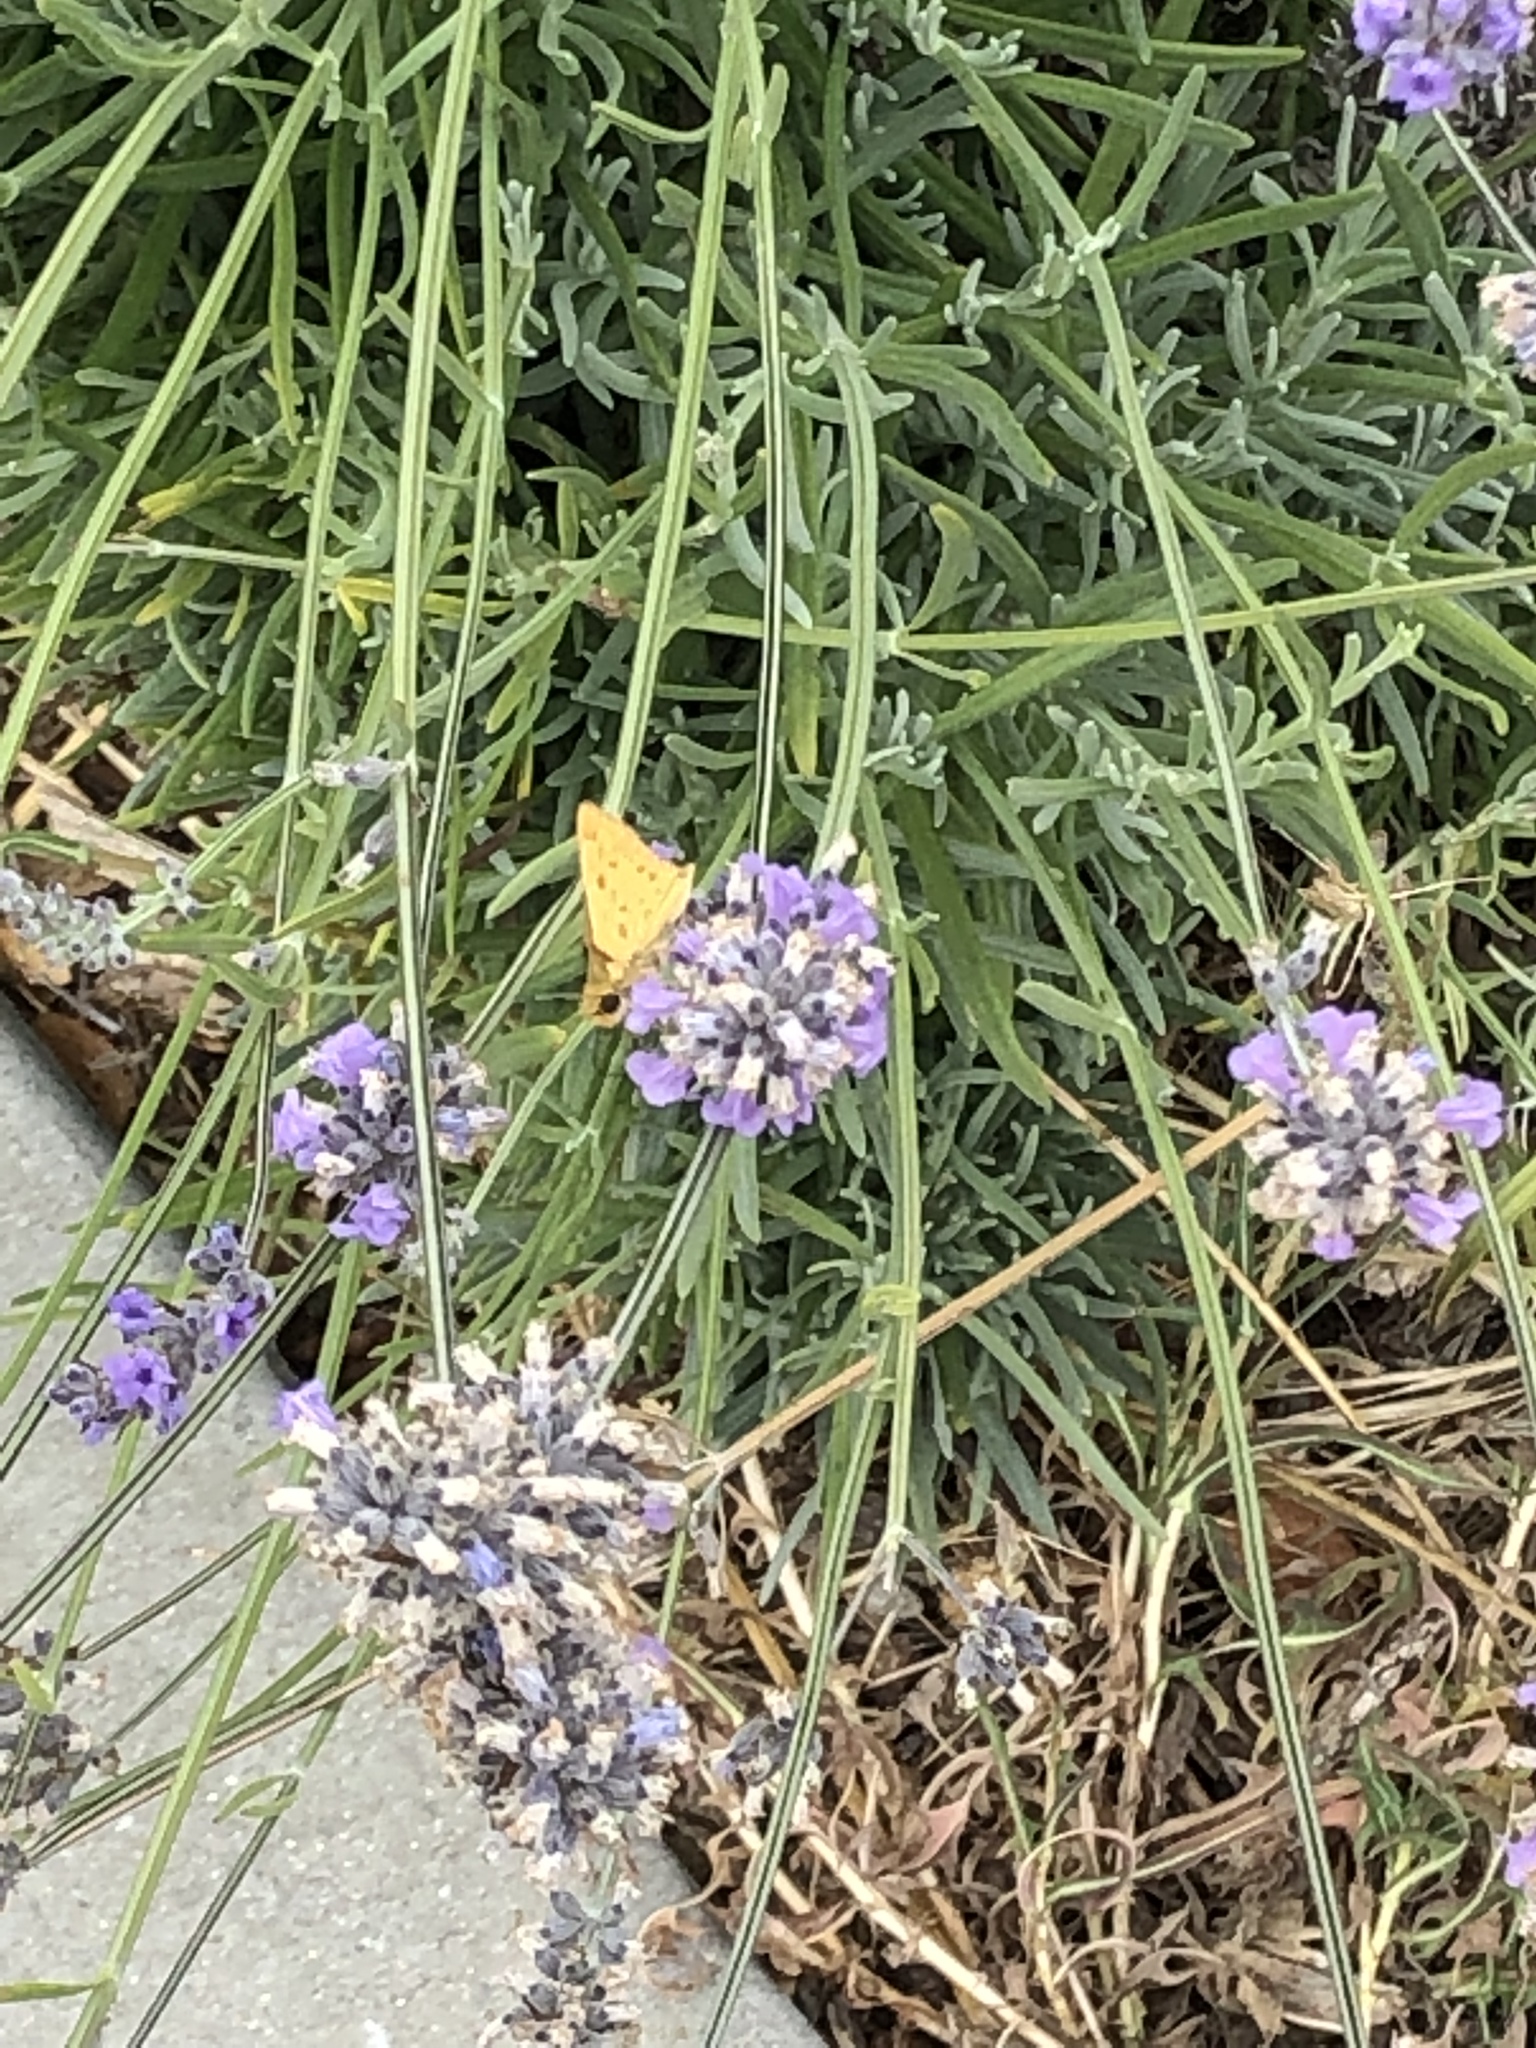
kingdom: Animalia
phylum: Arthropoda
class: Insecta
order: Lepidoptera
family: Hesperiidae
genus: Hylephila
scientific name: Hylephila phyleus
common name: Fiery skipper
